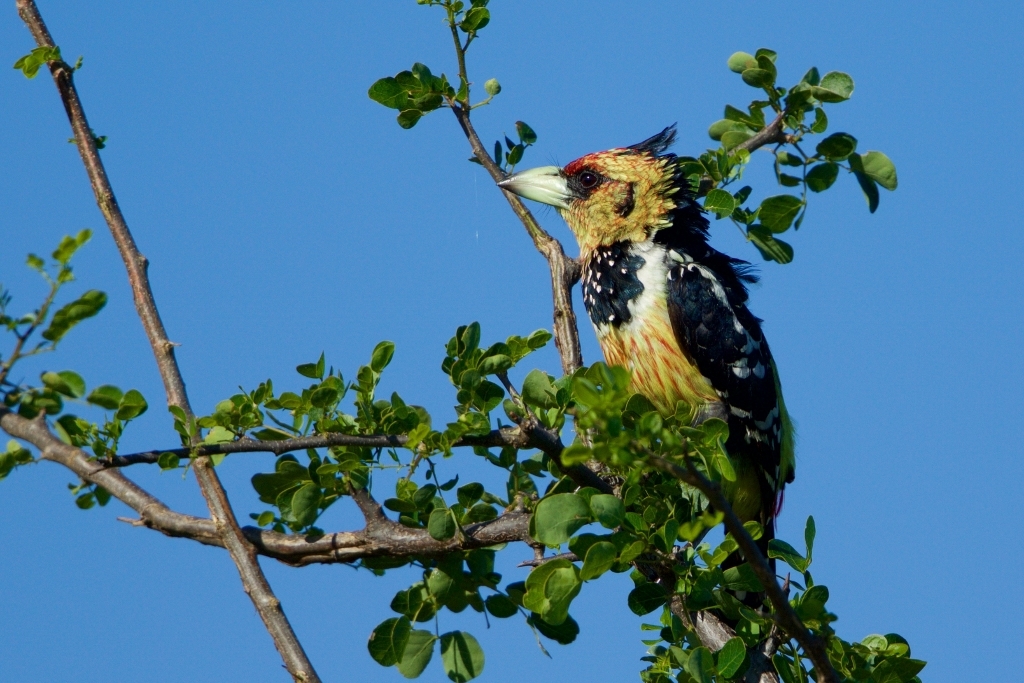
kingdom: Animalia
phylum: Chordata
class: Aves
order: Piciformes
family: Lybiidae
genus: Trachyphonus
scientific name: Trachyphonus vaillantii
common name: Crested barbet
